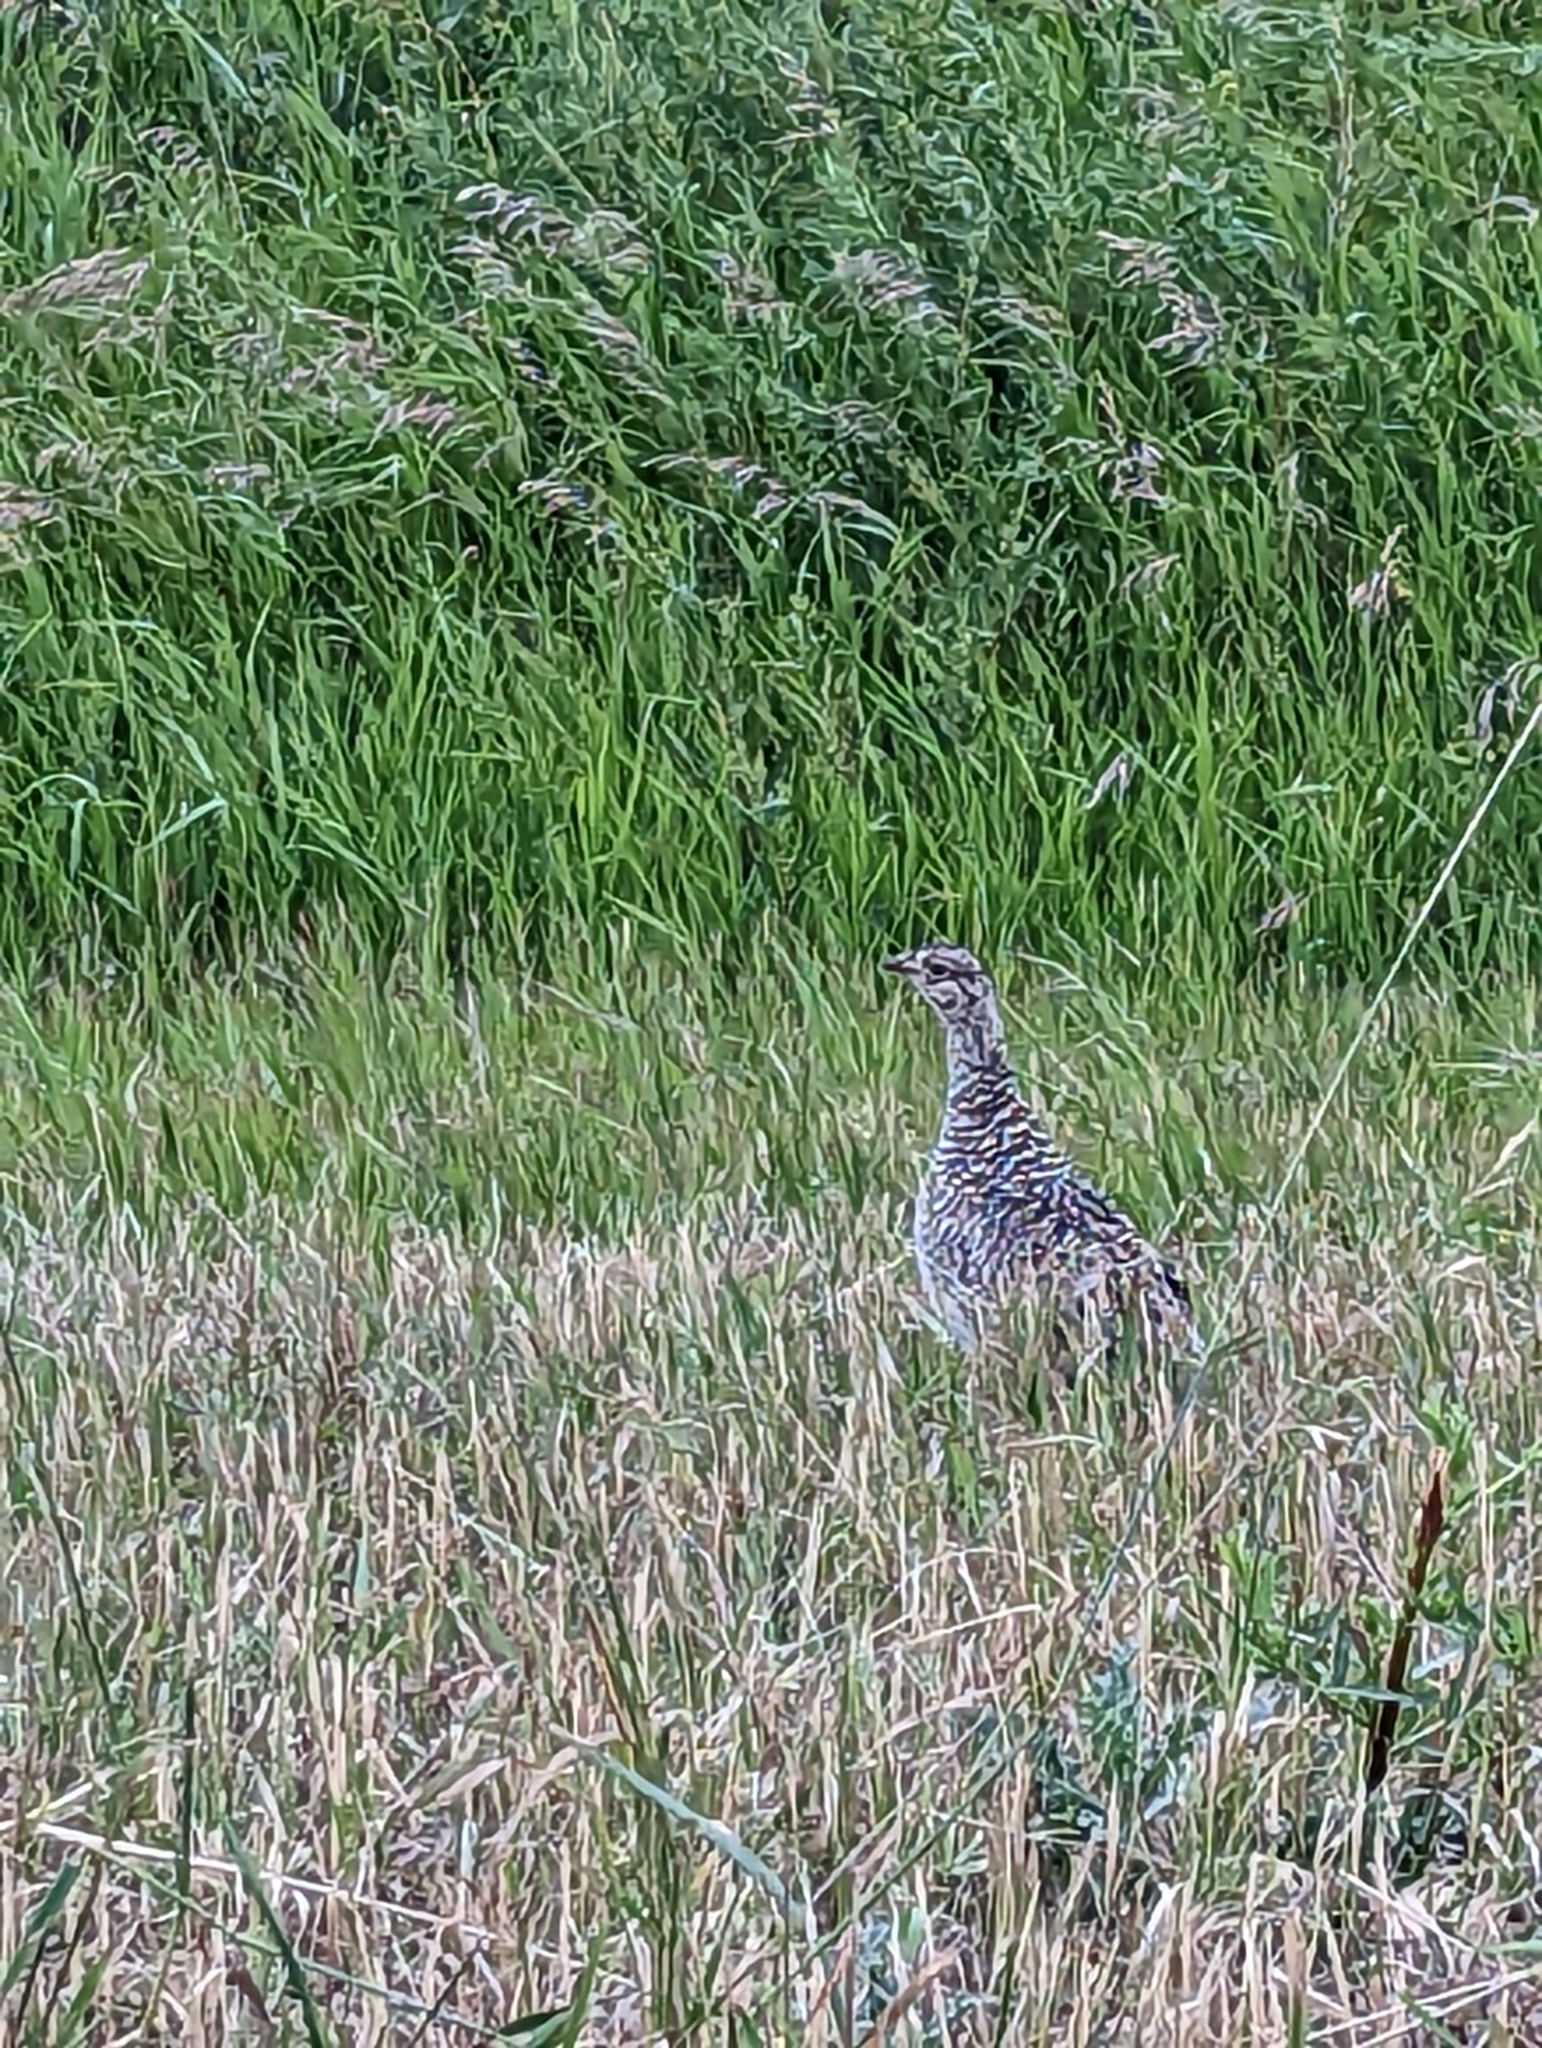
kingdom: Animalia
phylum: Chordata
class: Aves
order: Galliformes
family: Phasianidae
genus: Tympanuchus
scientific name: Tympanuchus phasianellus
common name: Sharp-tailed grouse
